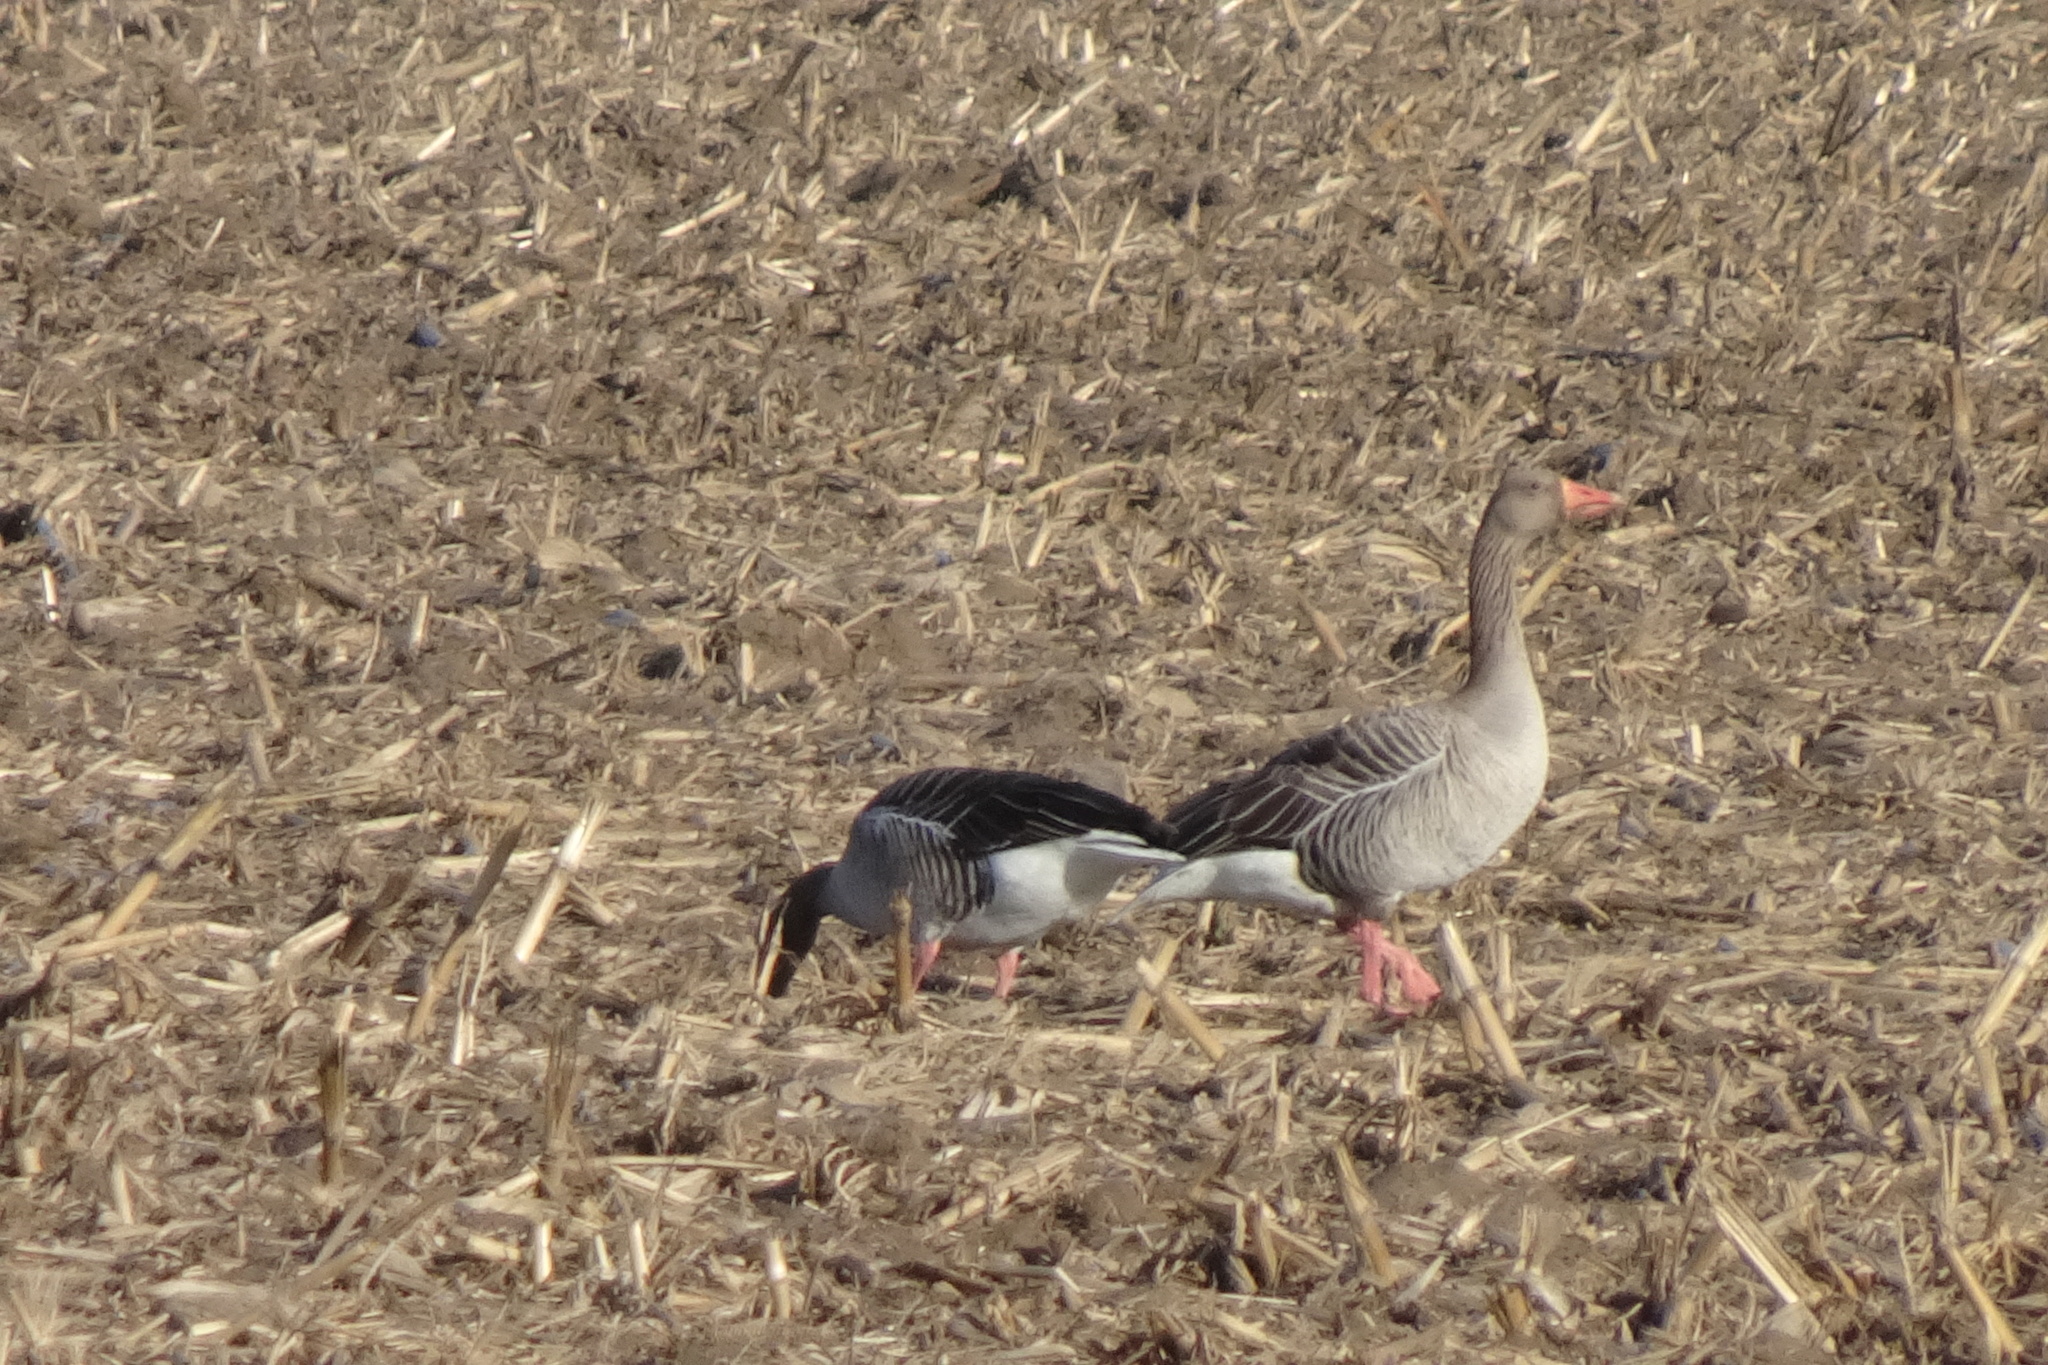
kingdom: Animalia
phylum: Chordata
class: Aves
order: Anseriformes
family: Anatidae
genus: Anser
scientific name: Anser anser
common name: Greylag goose
